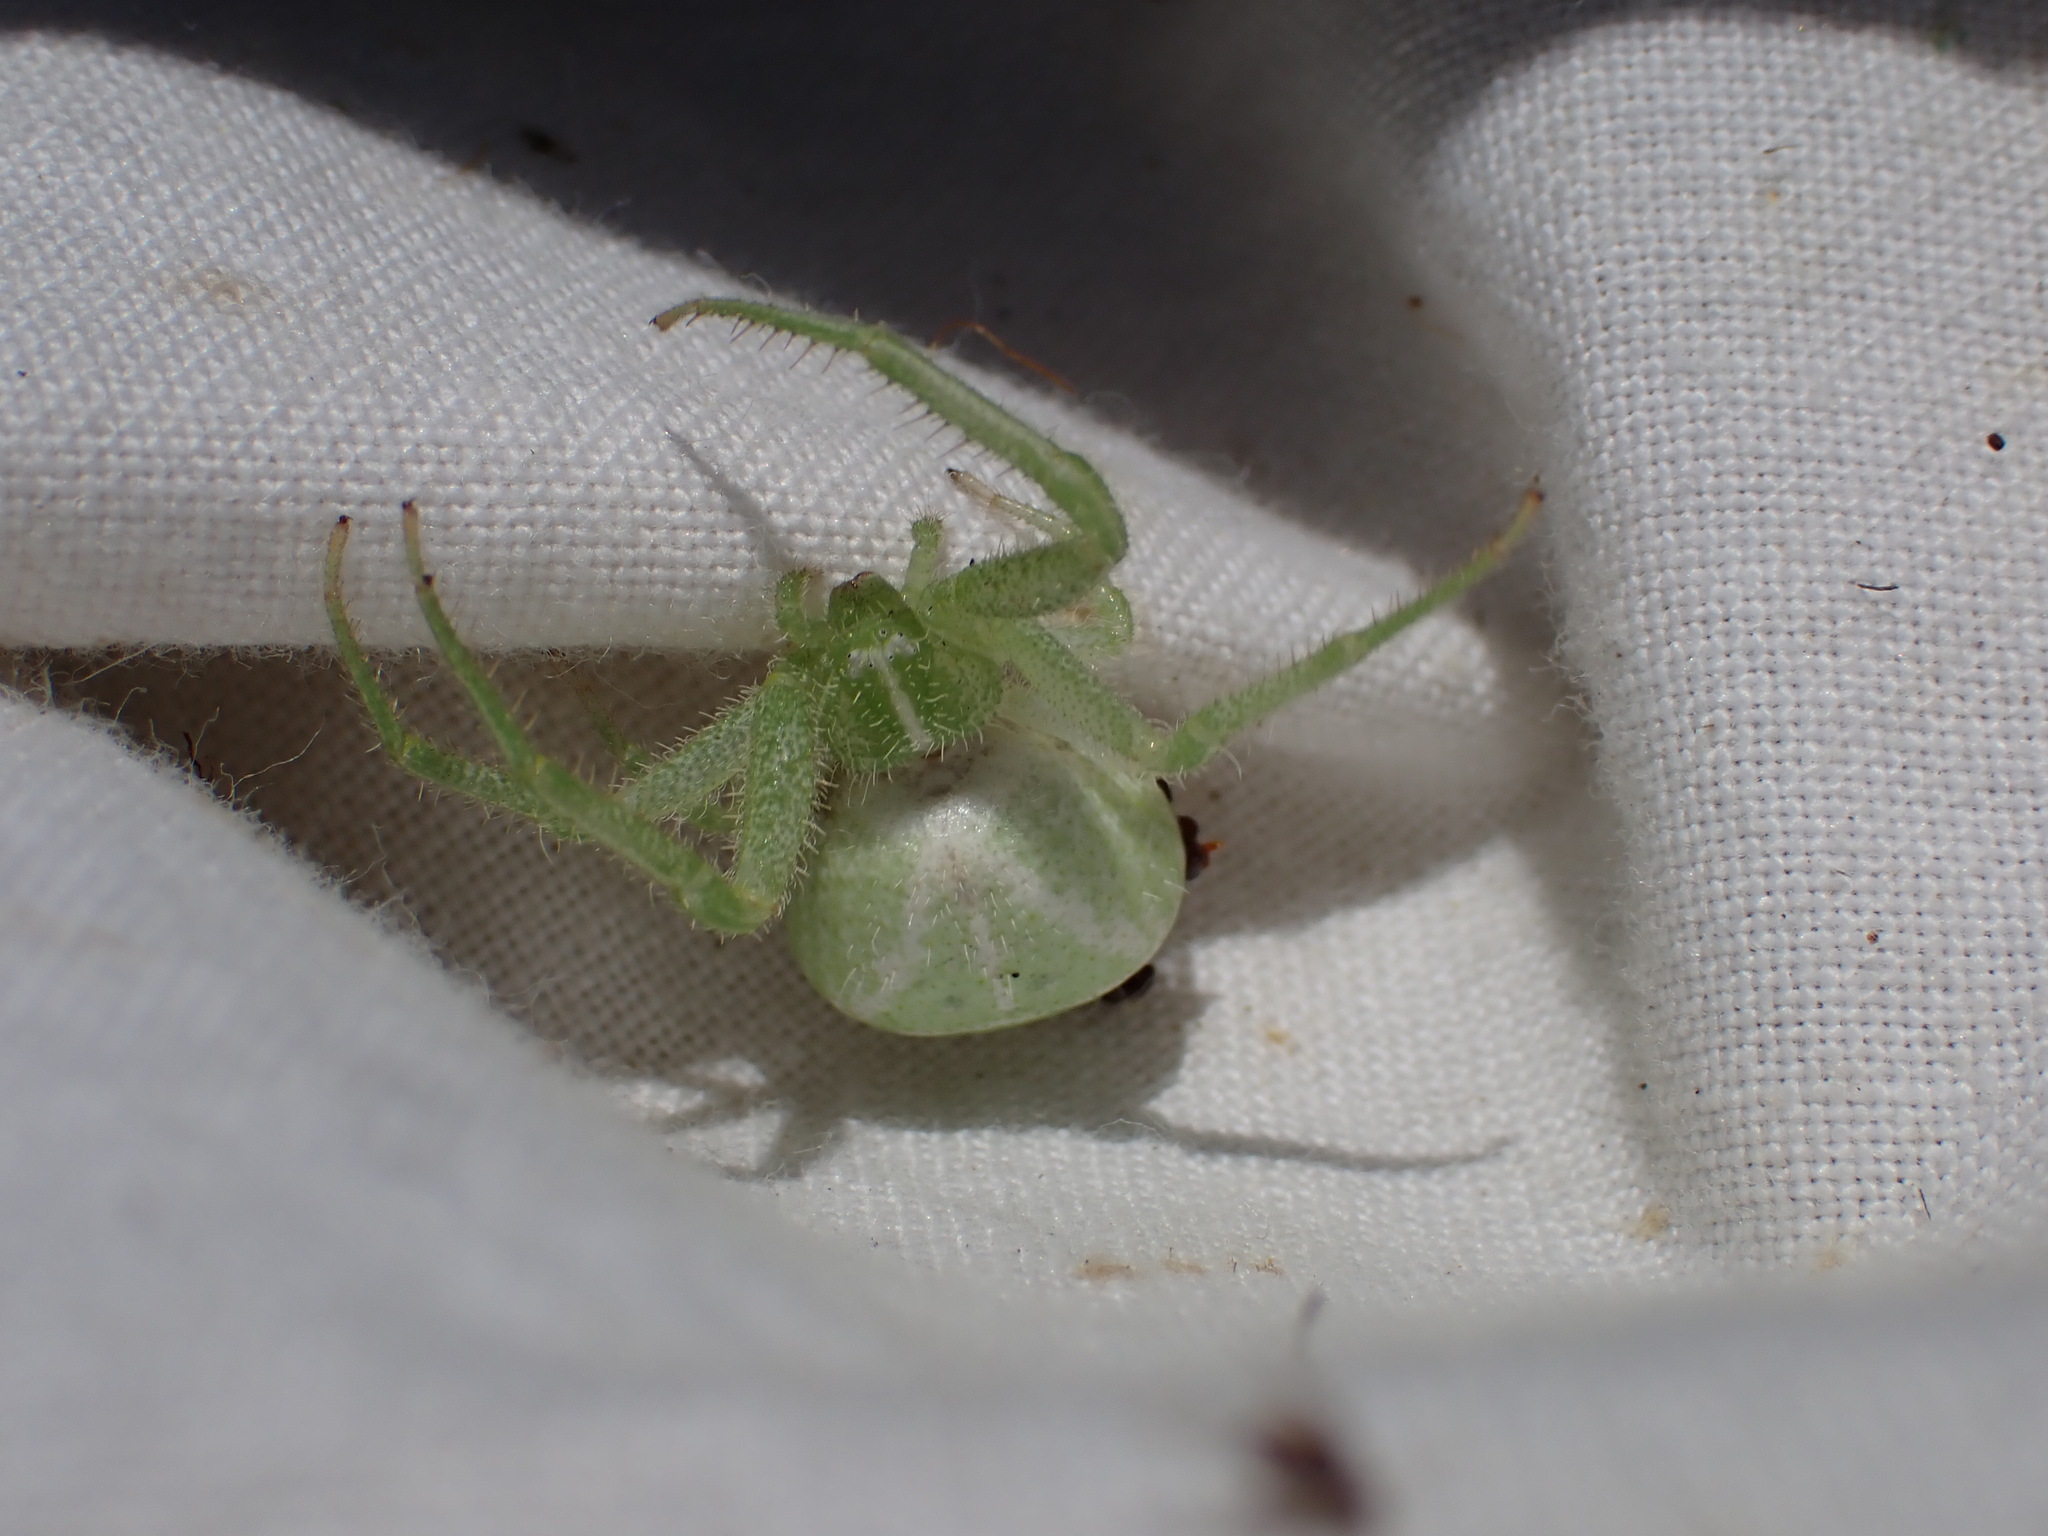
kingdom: Animalia
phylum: Arthropoda
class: Arachnida
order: Araneae
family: Thomisidae
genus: Heriaeus
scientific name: Heriaeus hirtus
